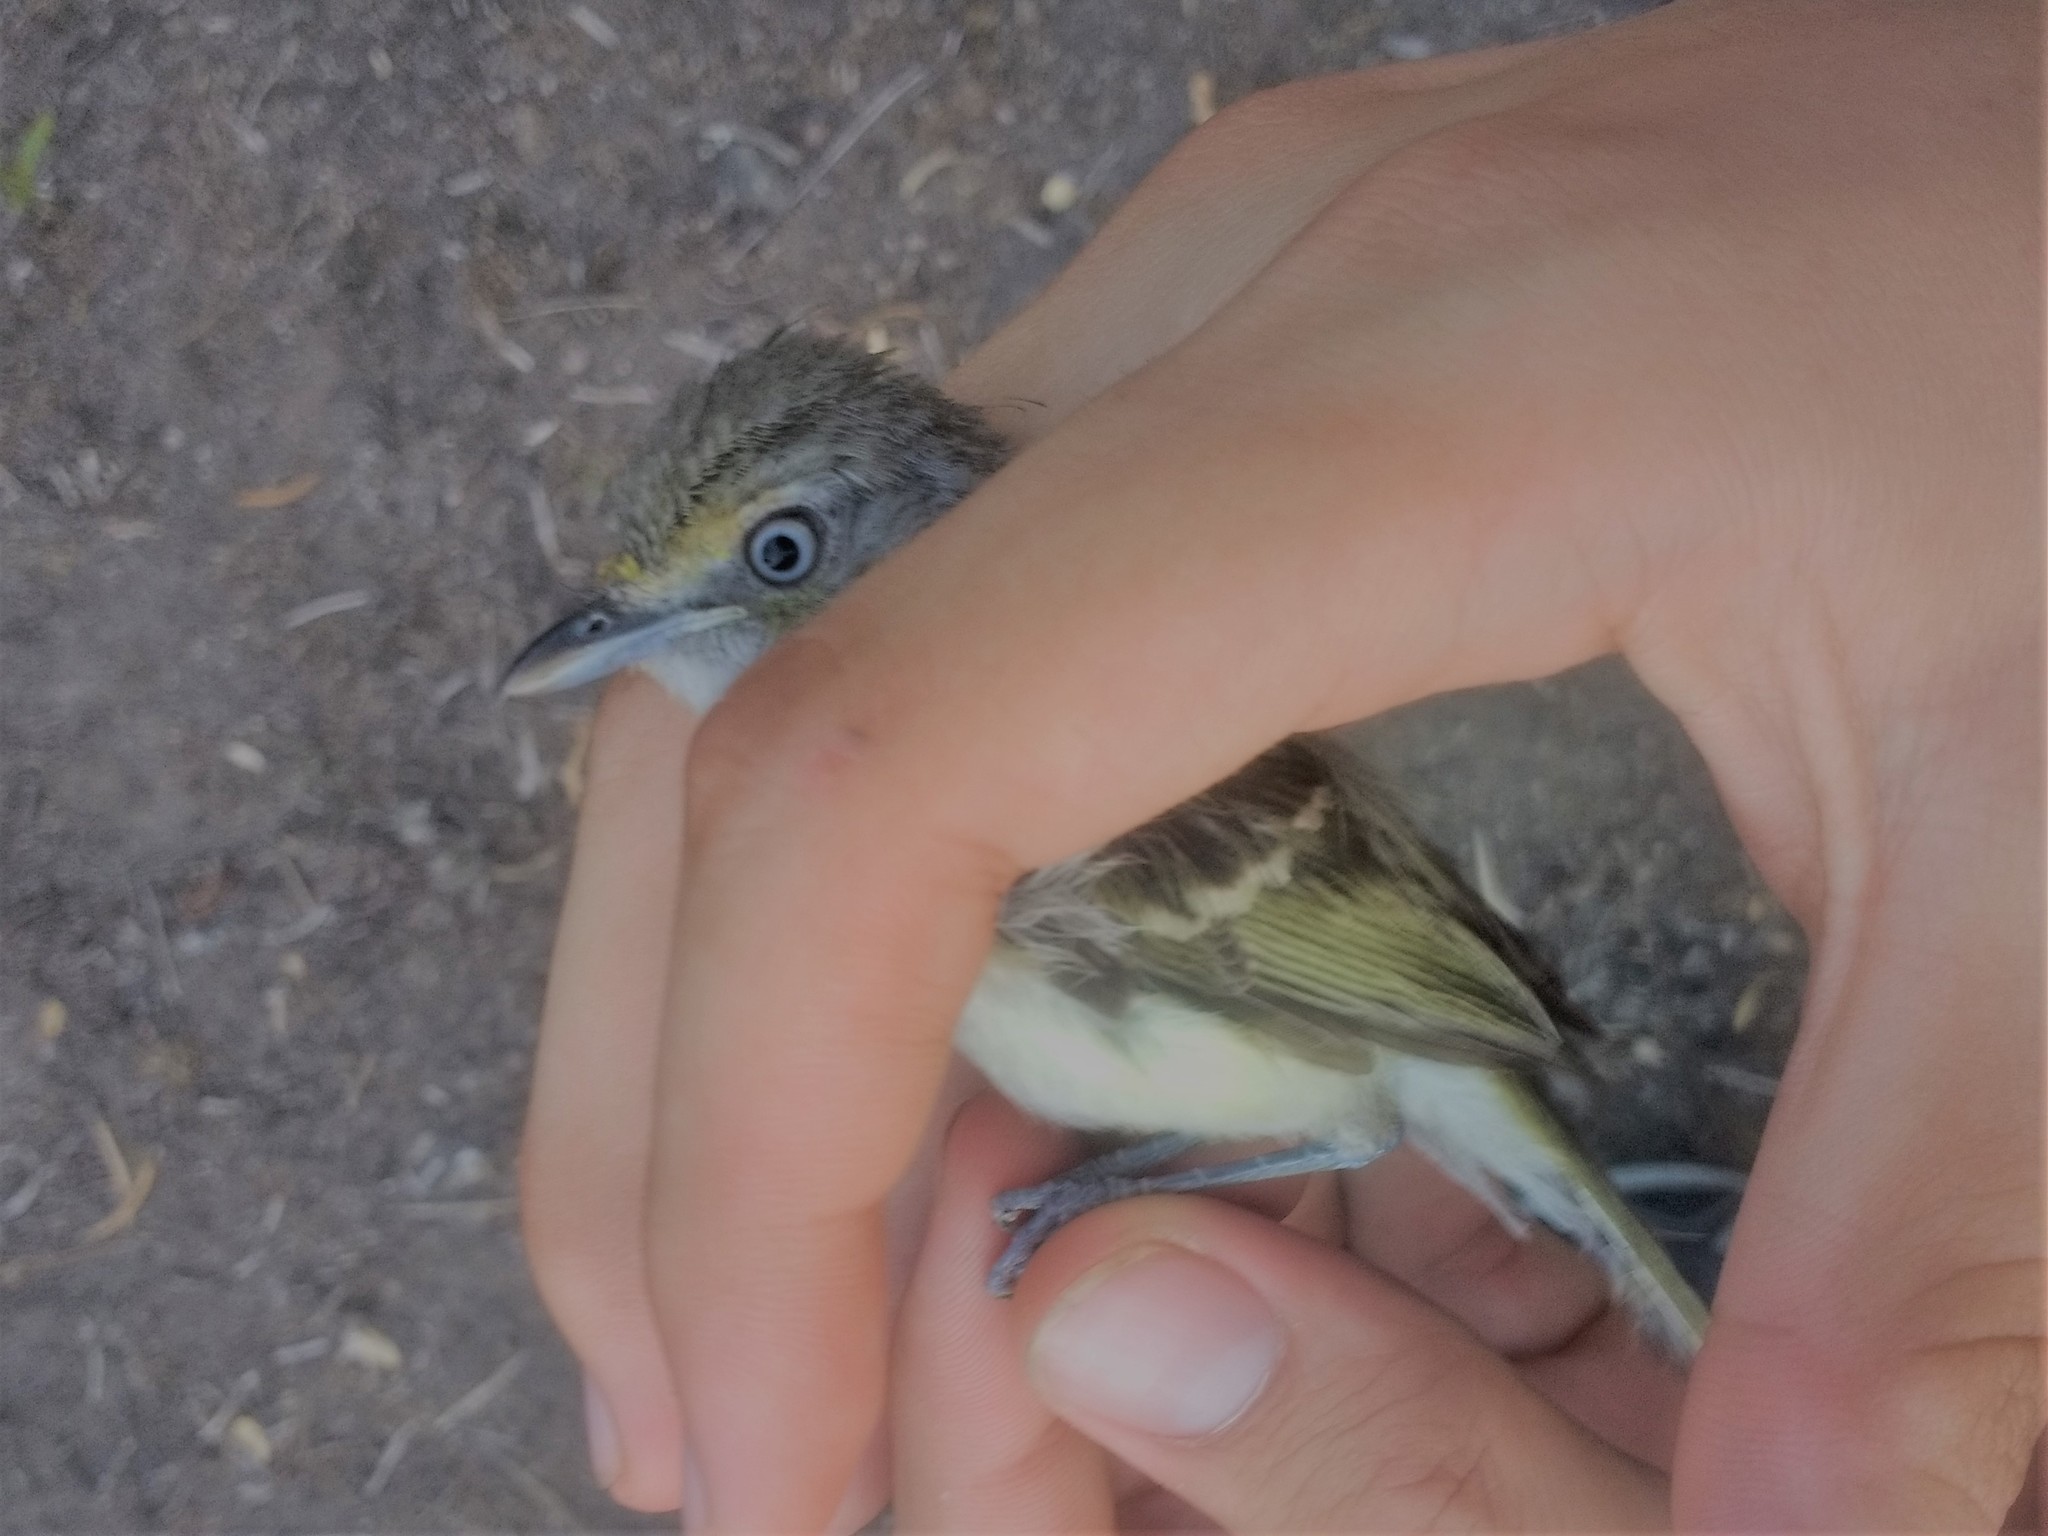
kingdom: Animalia
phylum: Chordata
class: Aves
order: Passeriformes
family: Vireonidae
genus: Vireo
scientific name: Vireo griseus
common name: White-eyed vireo
